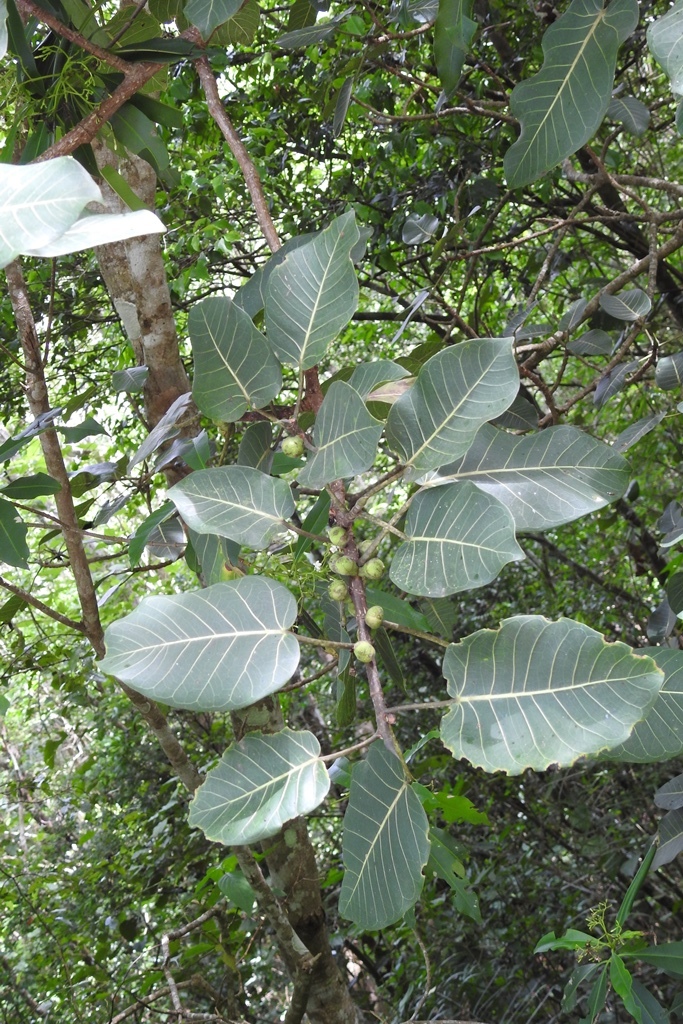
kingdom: Plantae
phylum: Tracheophyta
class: Magnoliopsida
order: Rosales
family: Moraceae
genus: Ficus
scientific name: Ficus aurea
